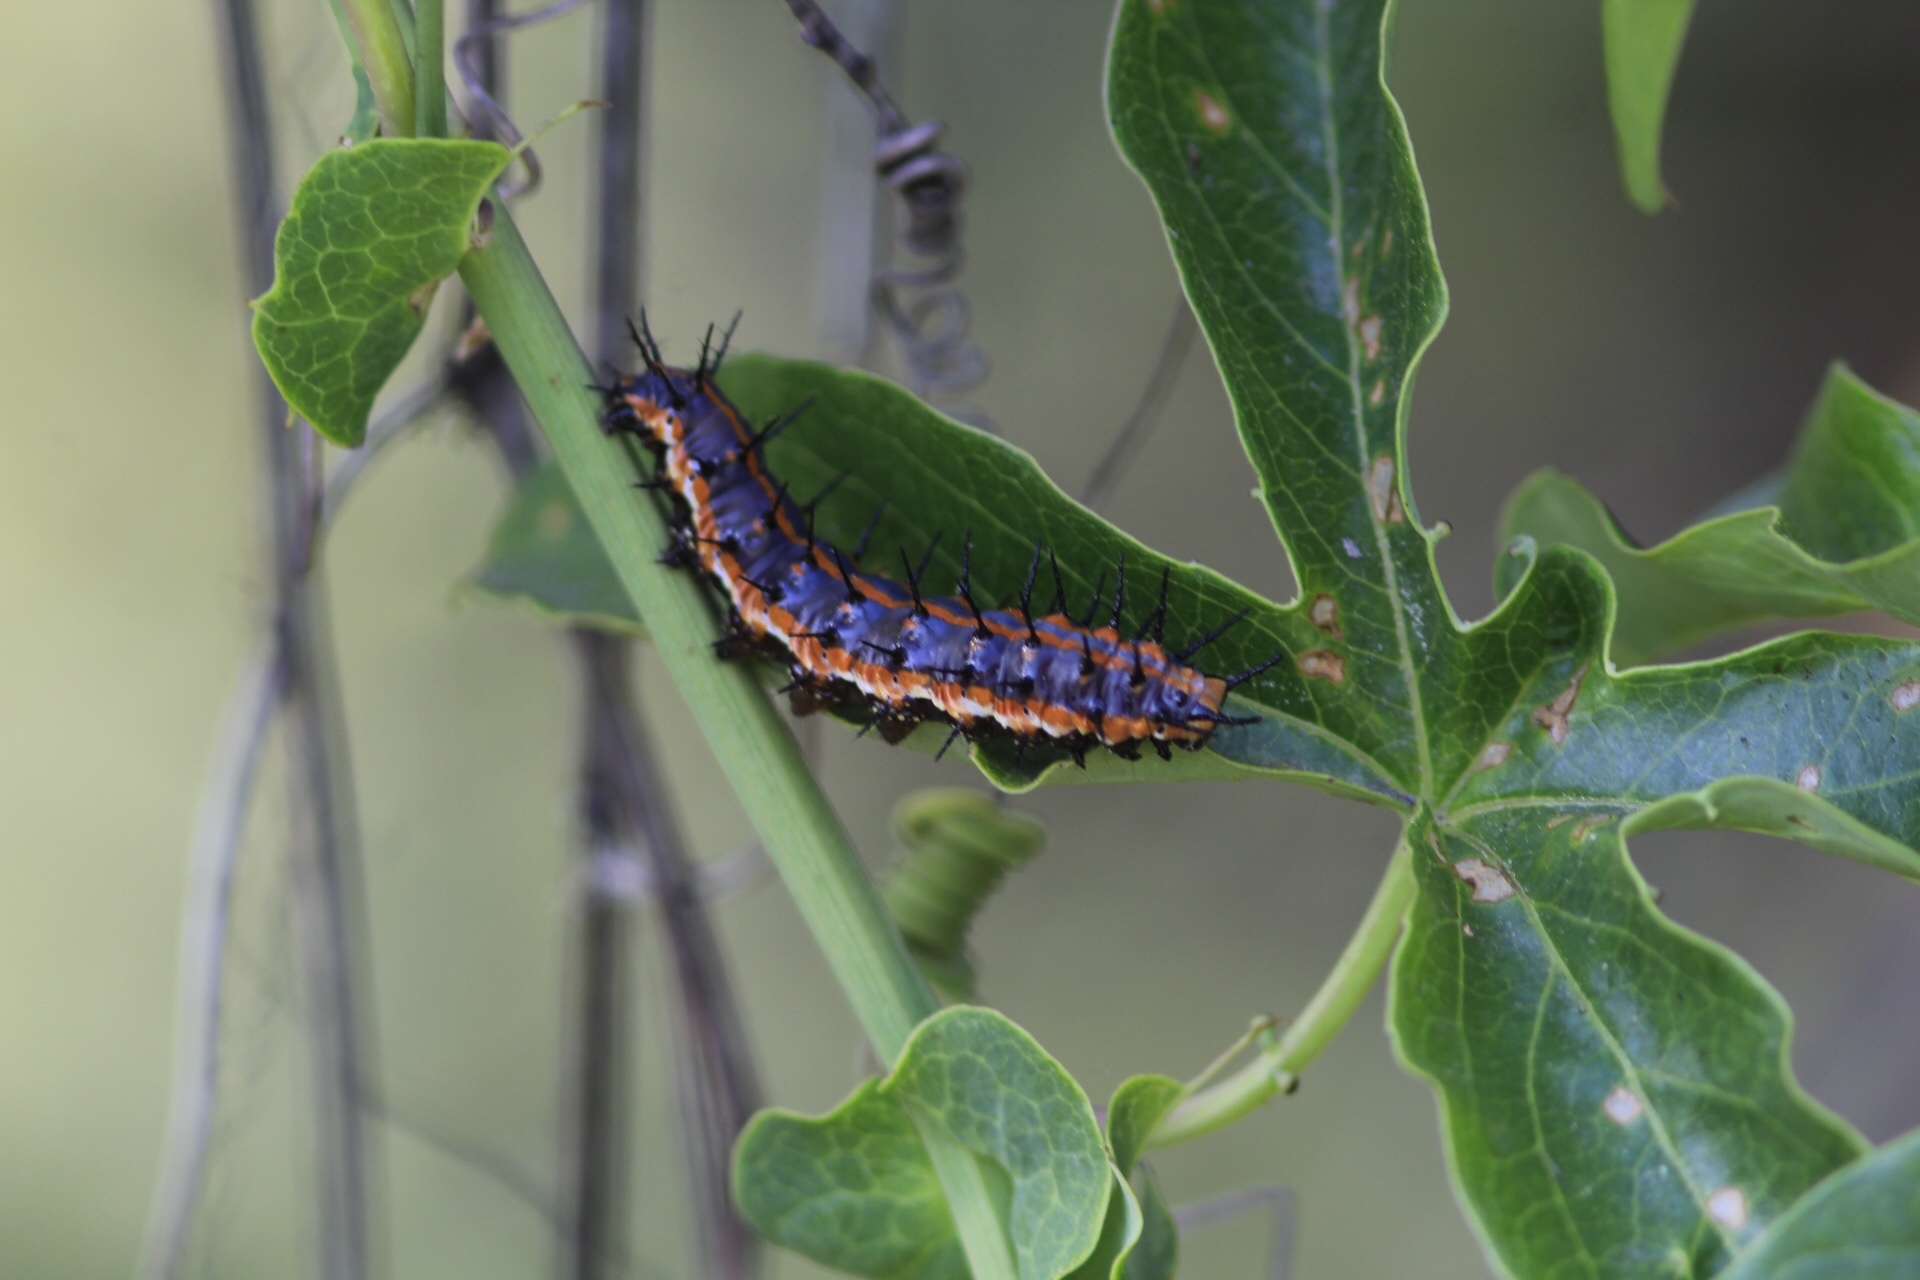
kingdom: Animalia
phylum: Arthropoda
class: Insecta
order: Lepidoptera
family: Nymphalidae
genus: Dione
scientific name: Dione vanillae
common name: Gulf fritillary
